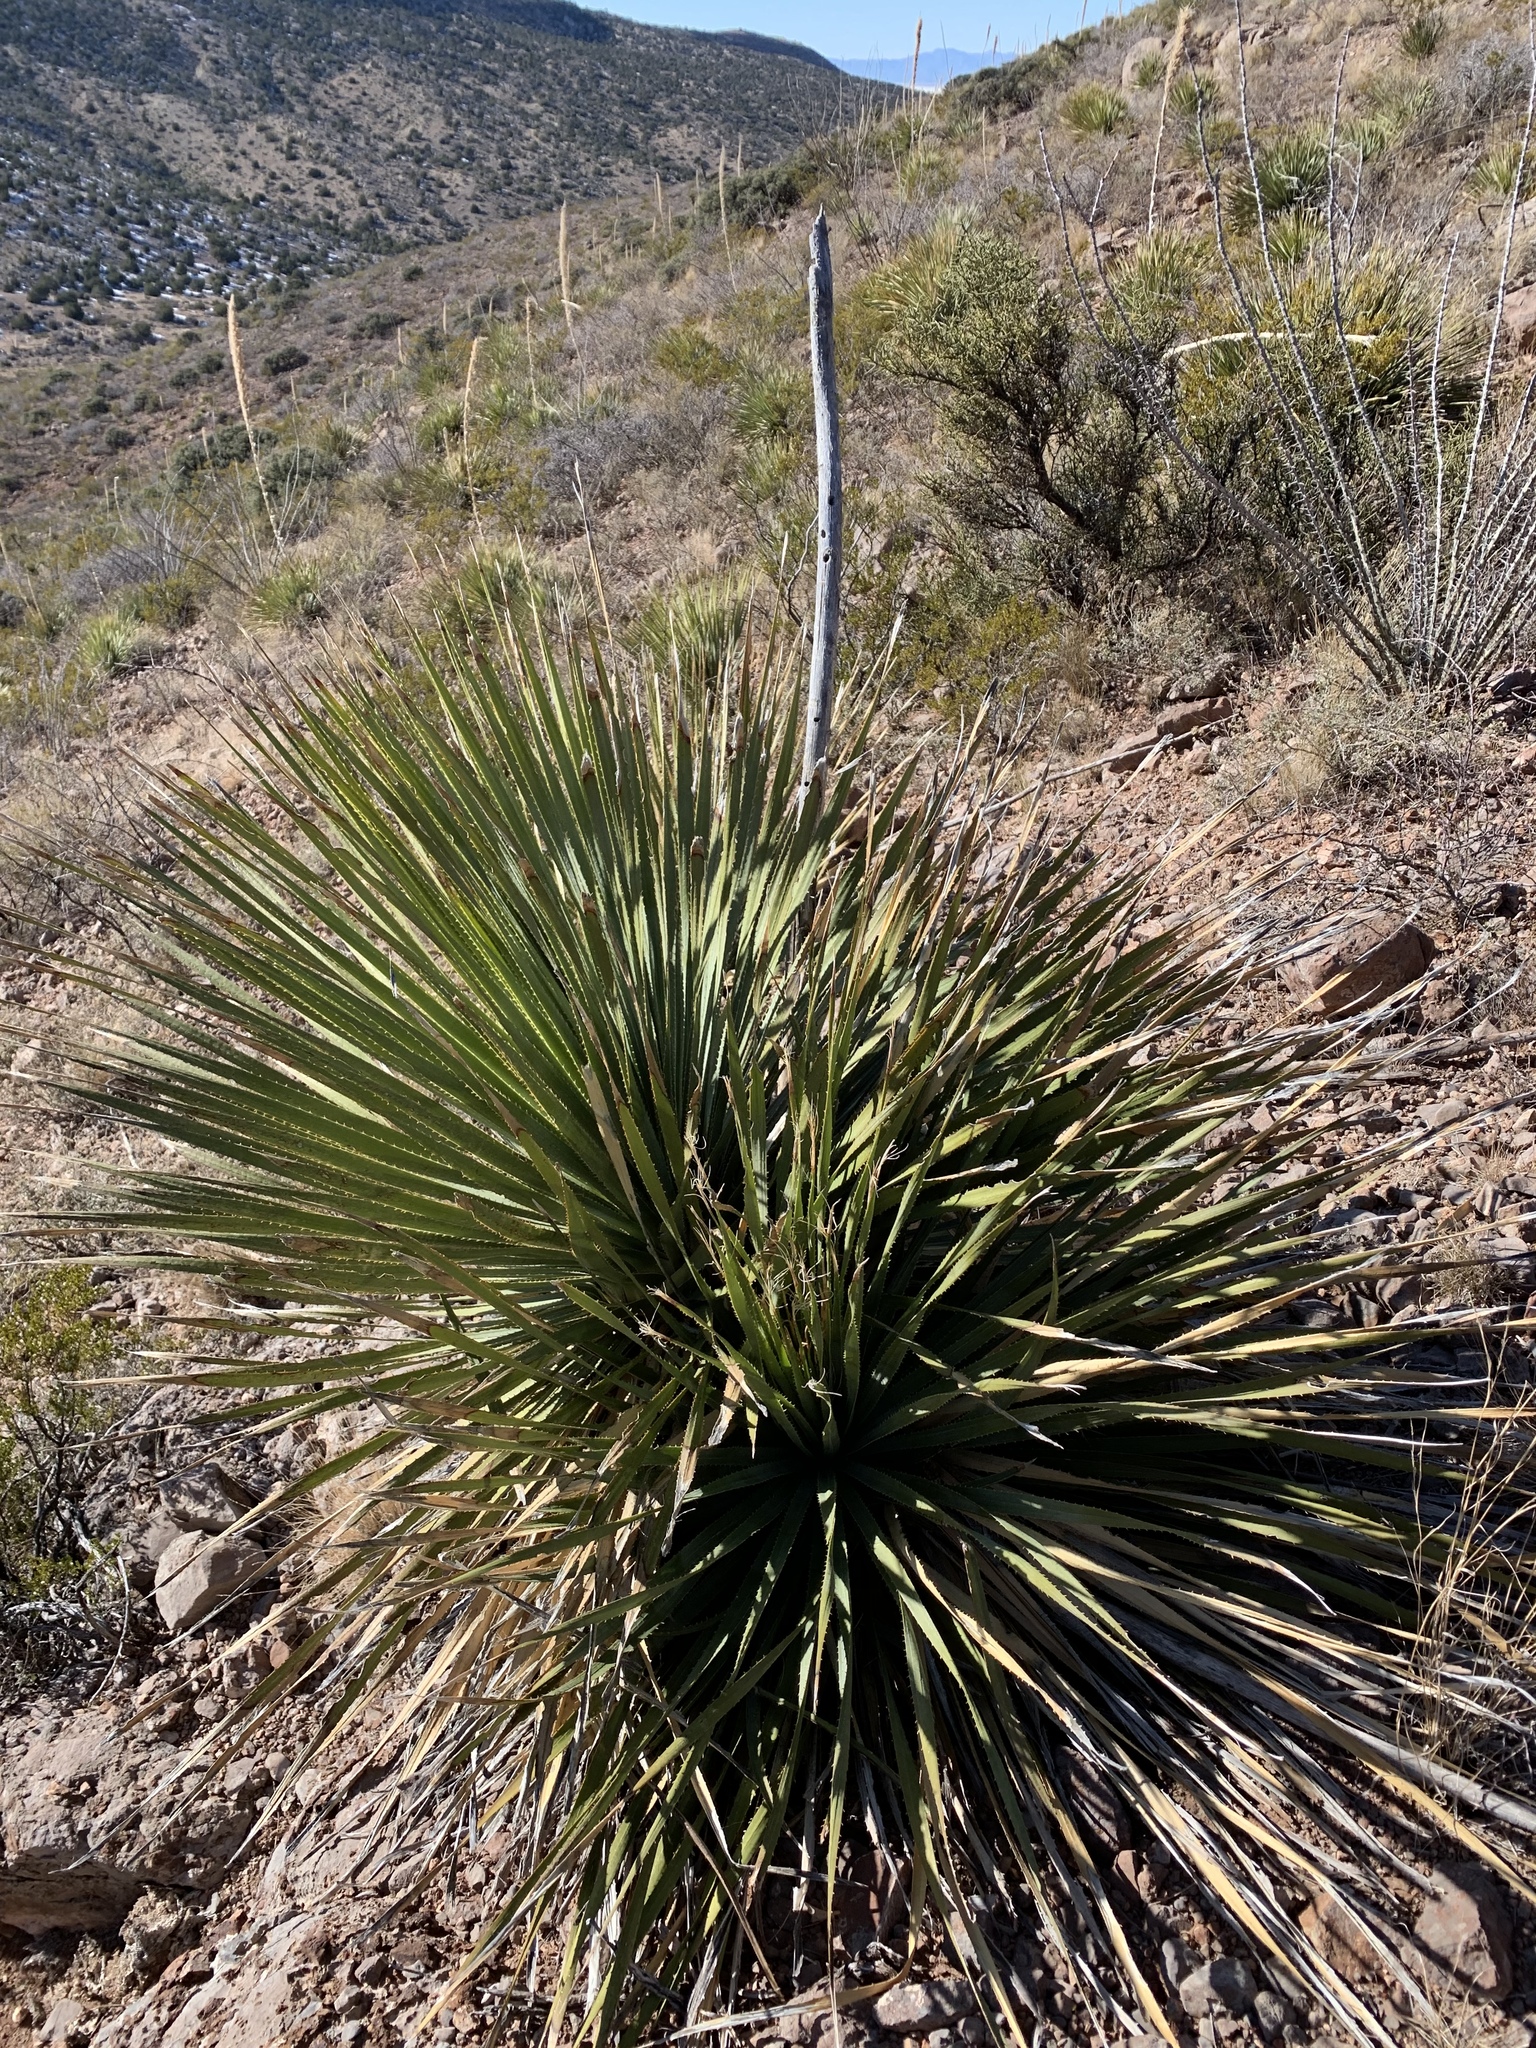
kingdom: Plantae
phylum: Tracheophyta
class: Liliopsida
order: Asparagales
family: Asparagaceae
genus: Dasylirion
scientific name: Dasylirion wheeleri
